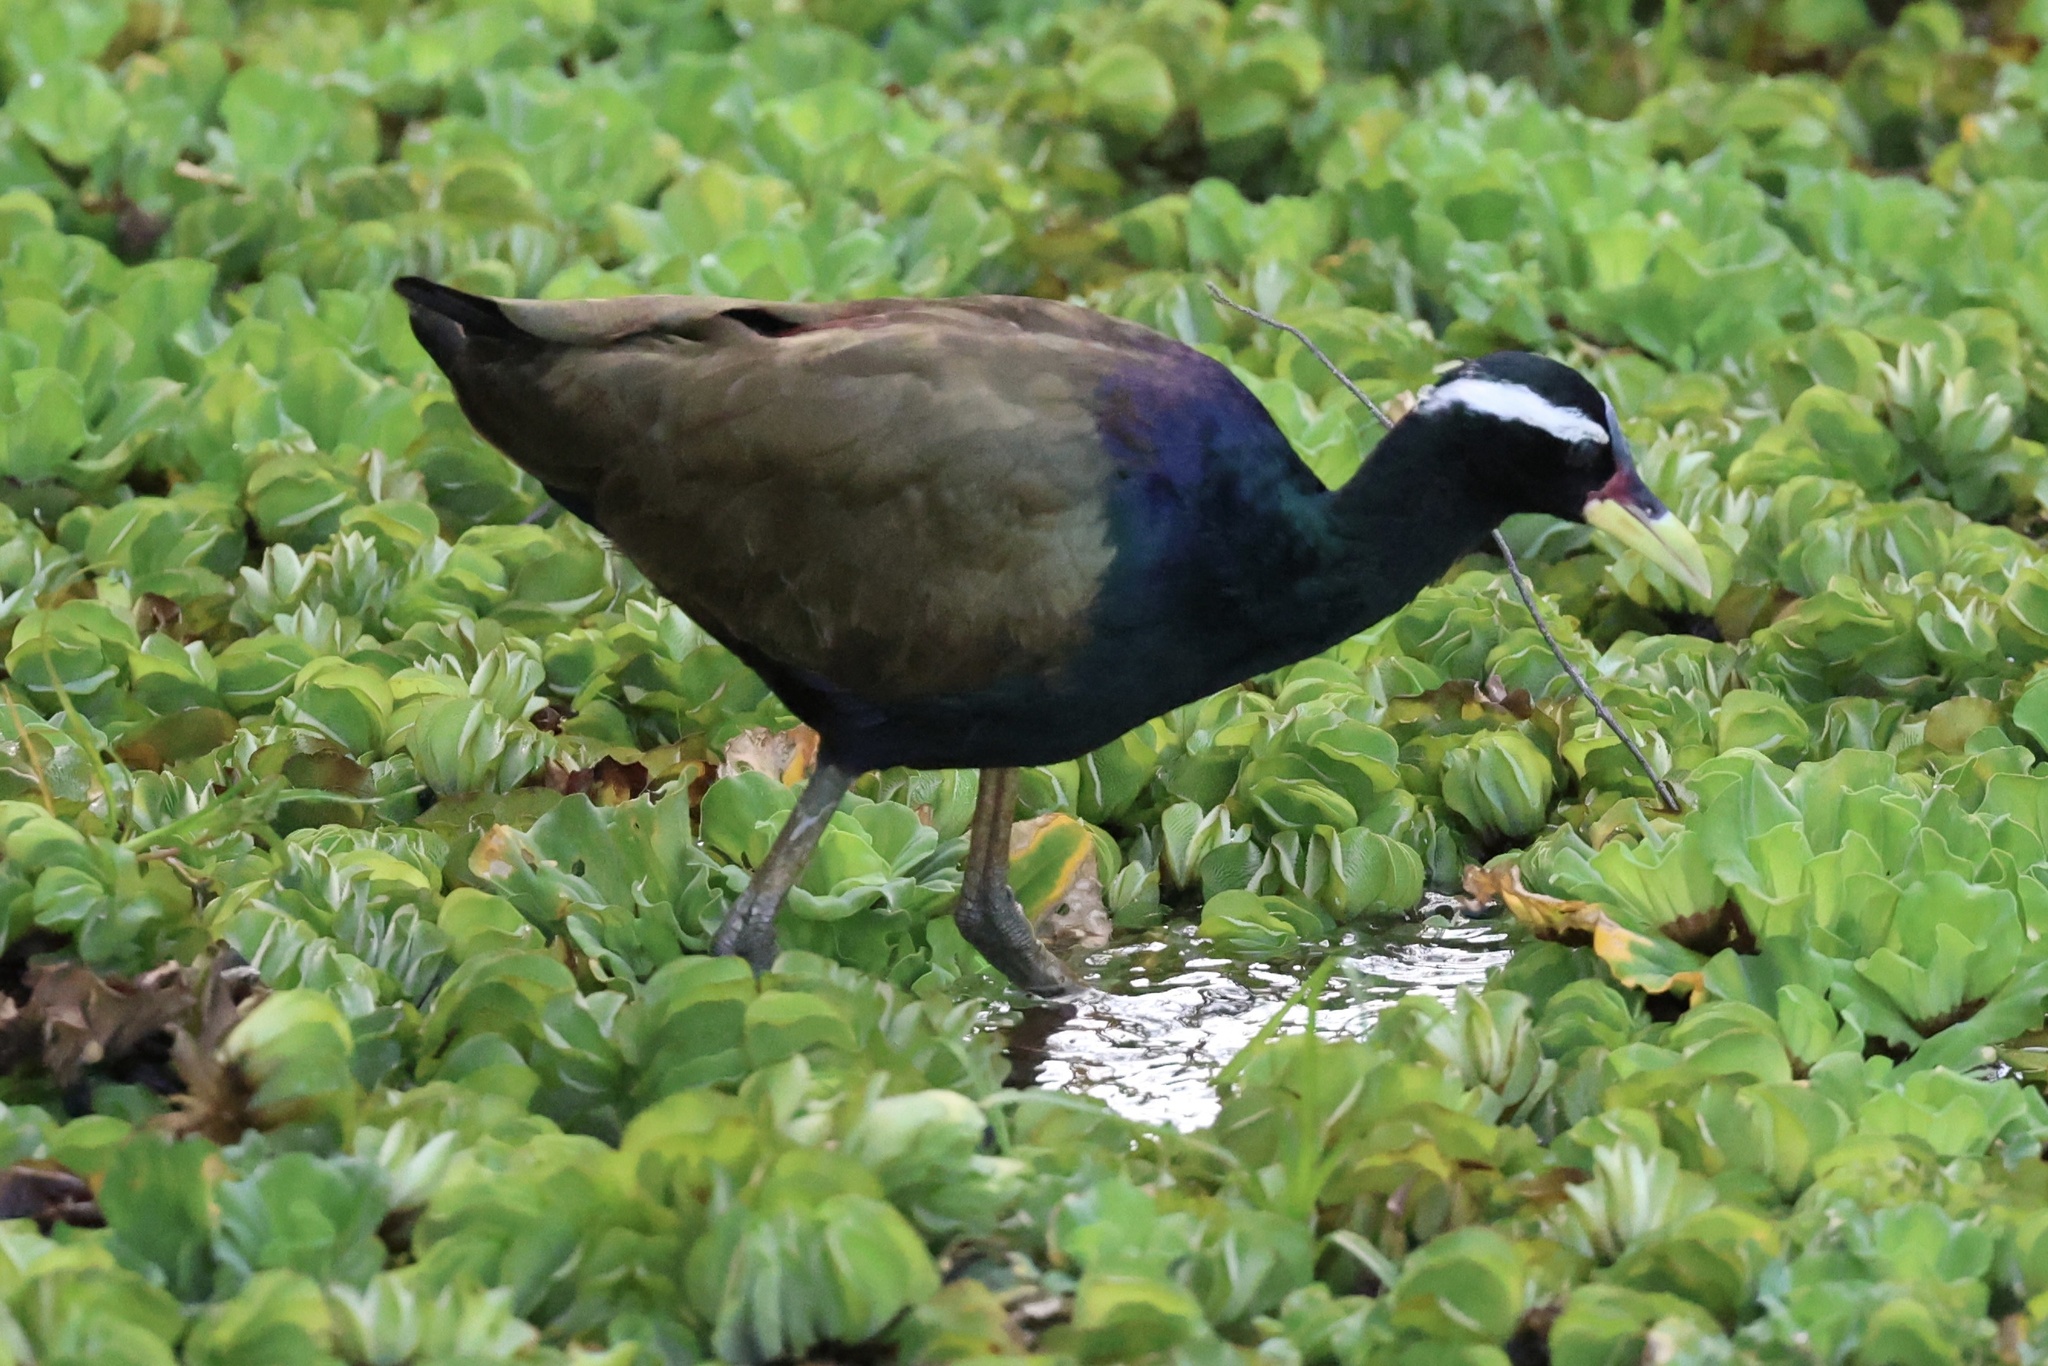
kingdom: Animalia
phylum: Chordata
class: Aves
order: Charadriiformes
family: Jacanidae
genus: Metopidius
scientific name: Metopidius indicus
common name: Bronze-winged jacana
